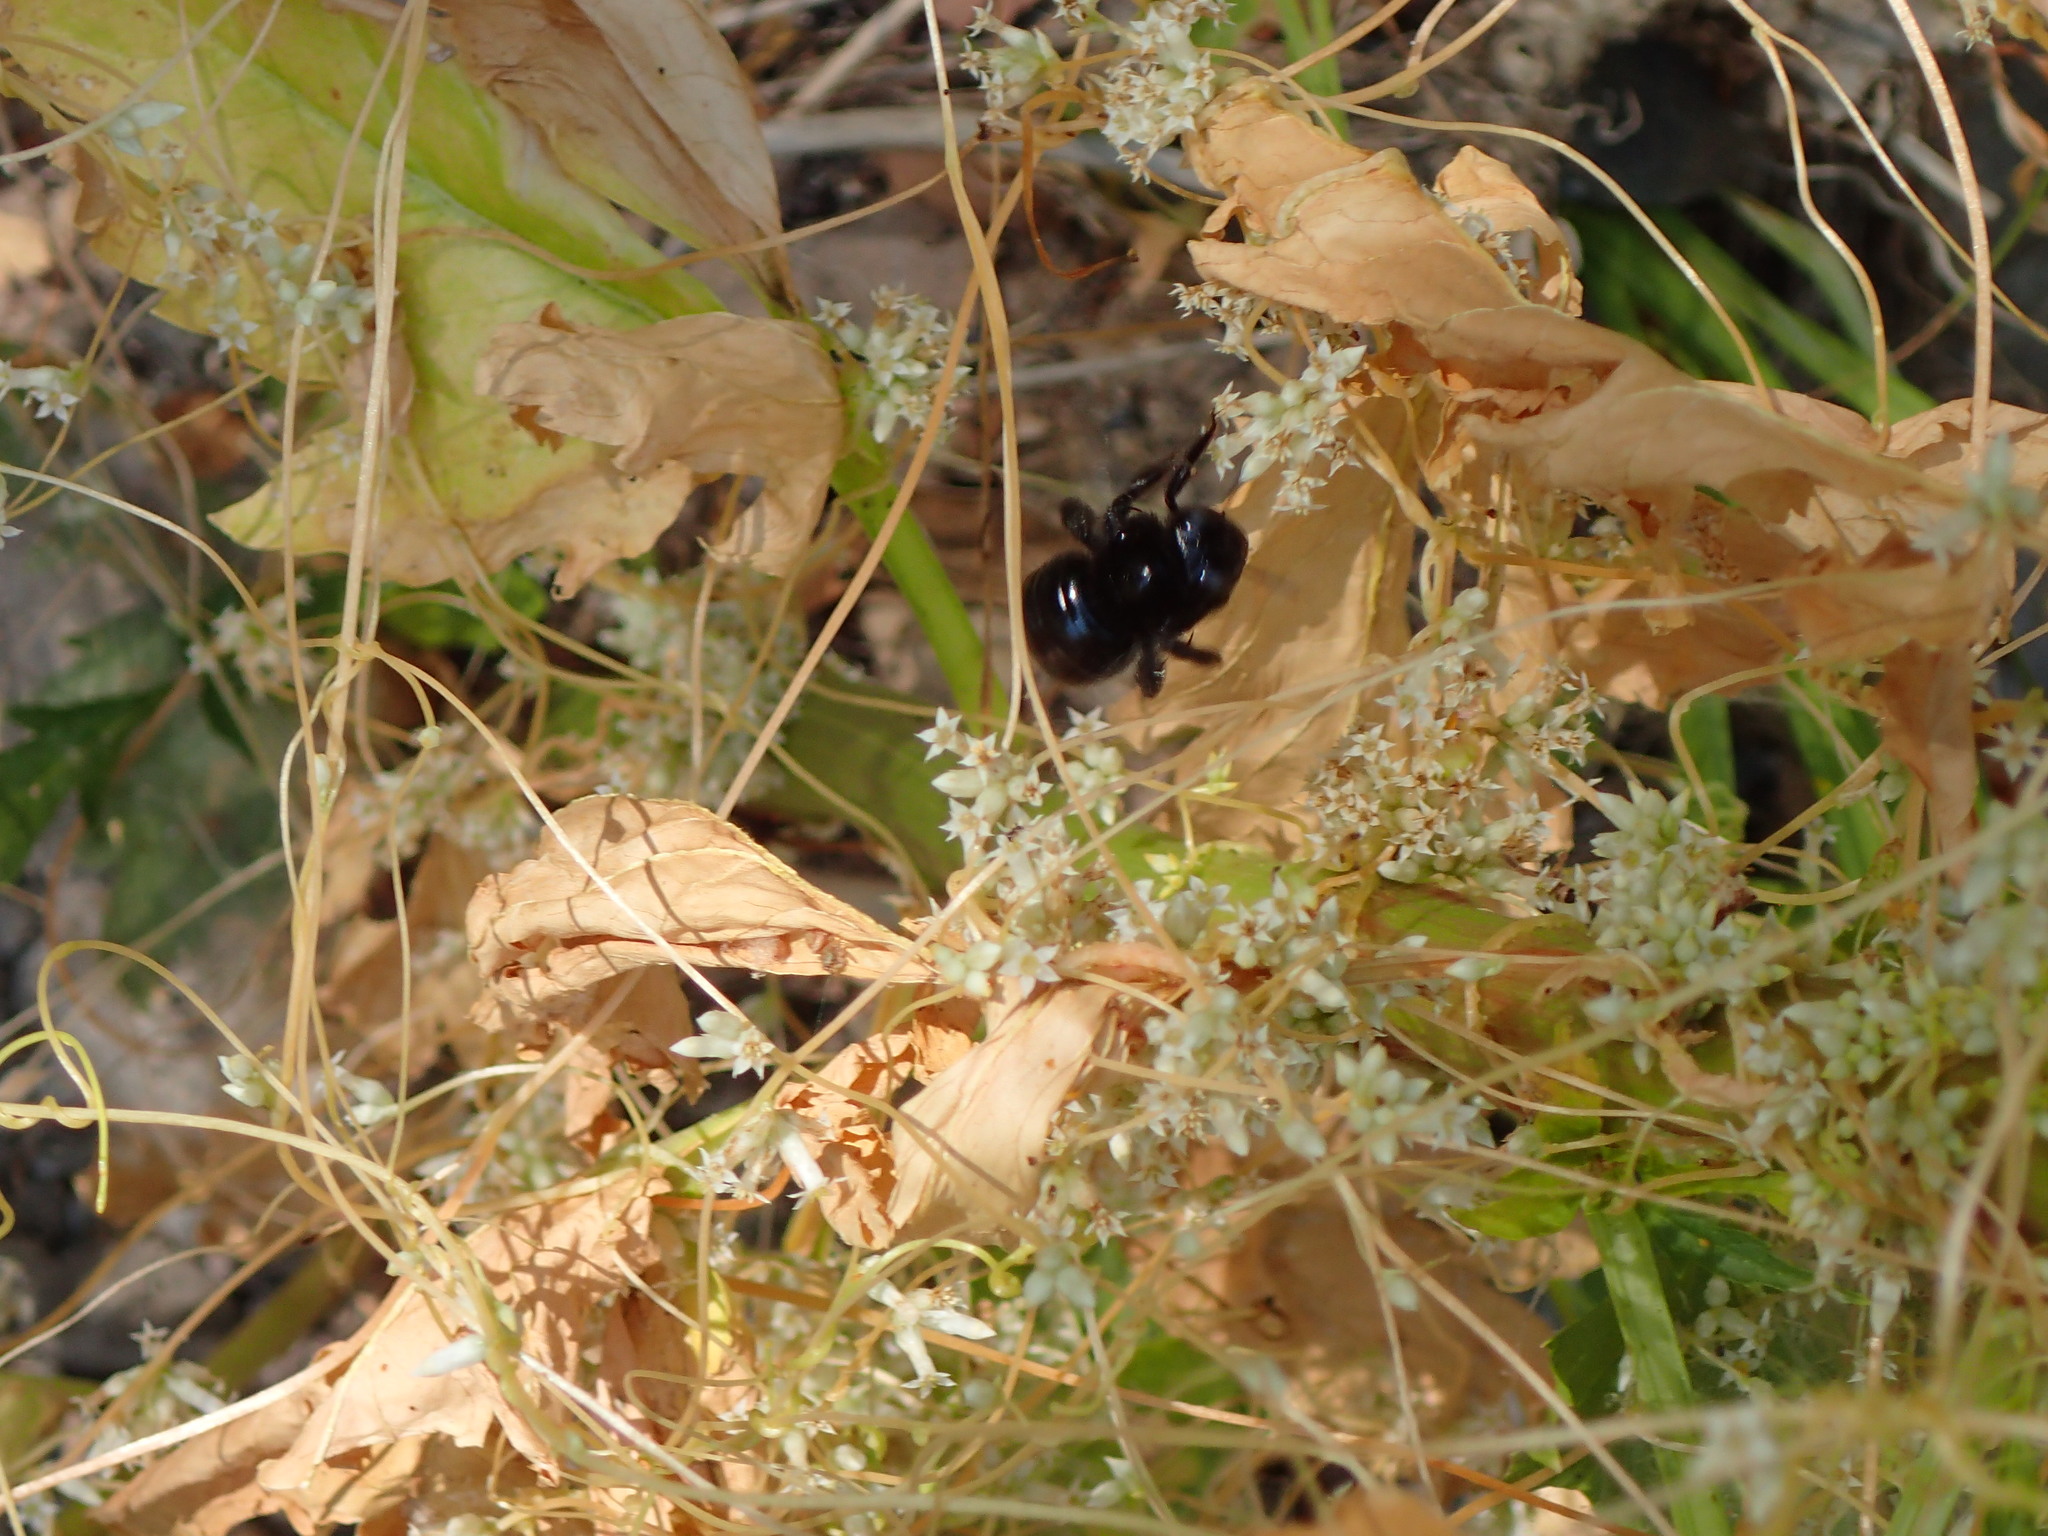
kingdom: Animalia
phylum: Arthropoda
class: Insecta
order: Hymenoptera
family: Apidae
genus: Xylocopa
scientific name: Xylocopa tabaniformis
